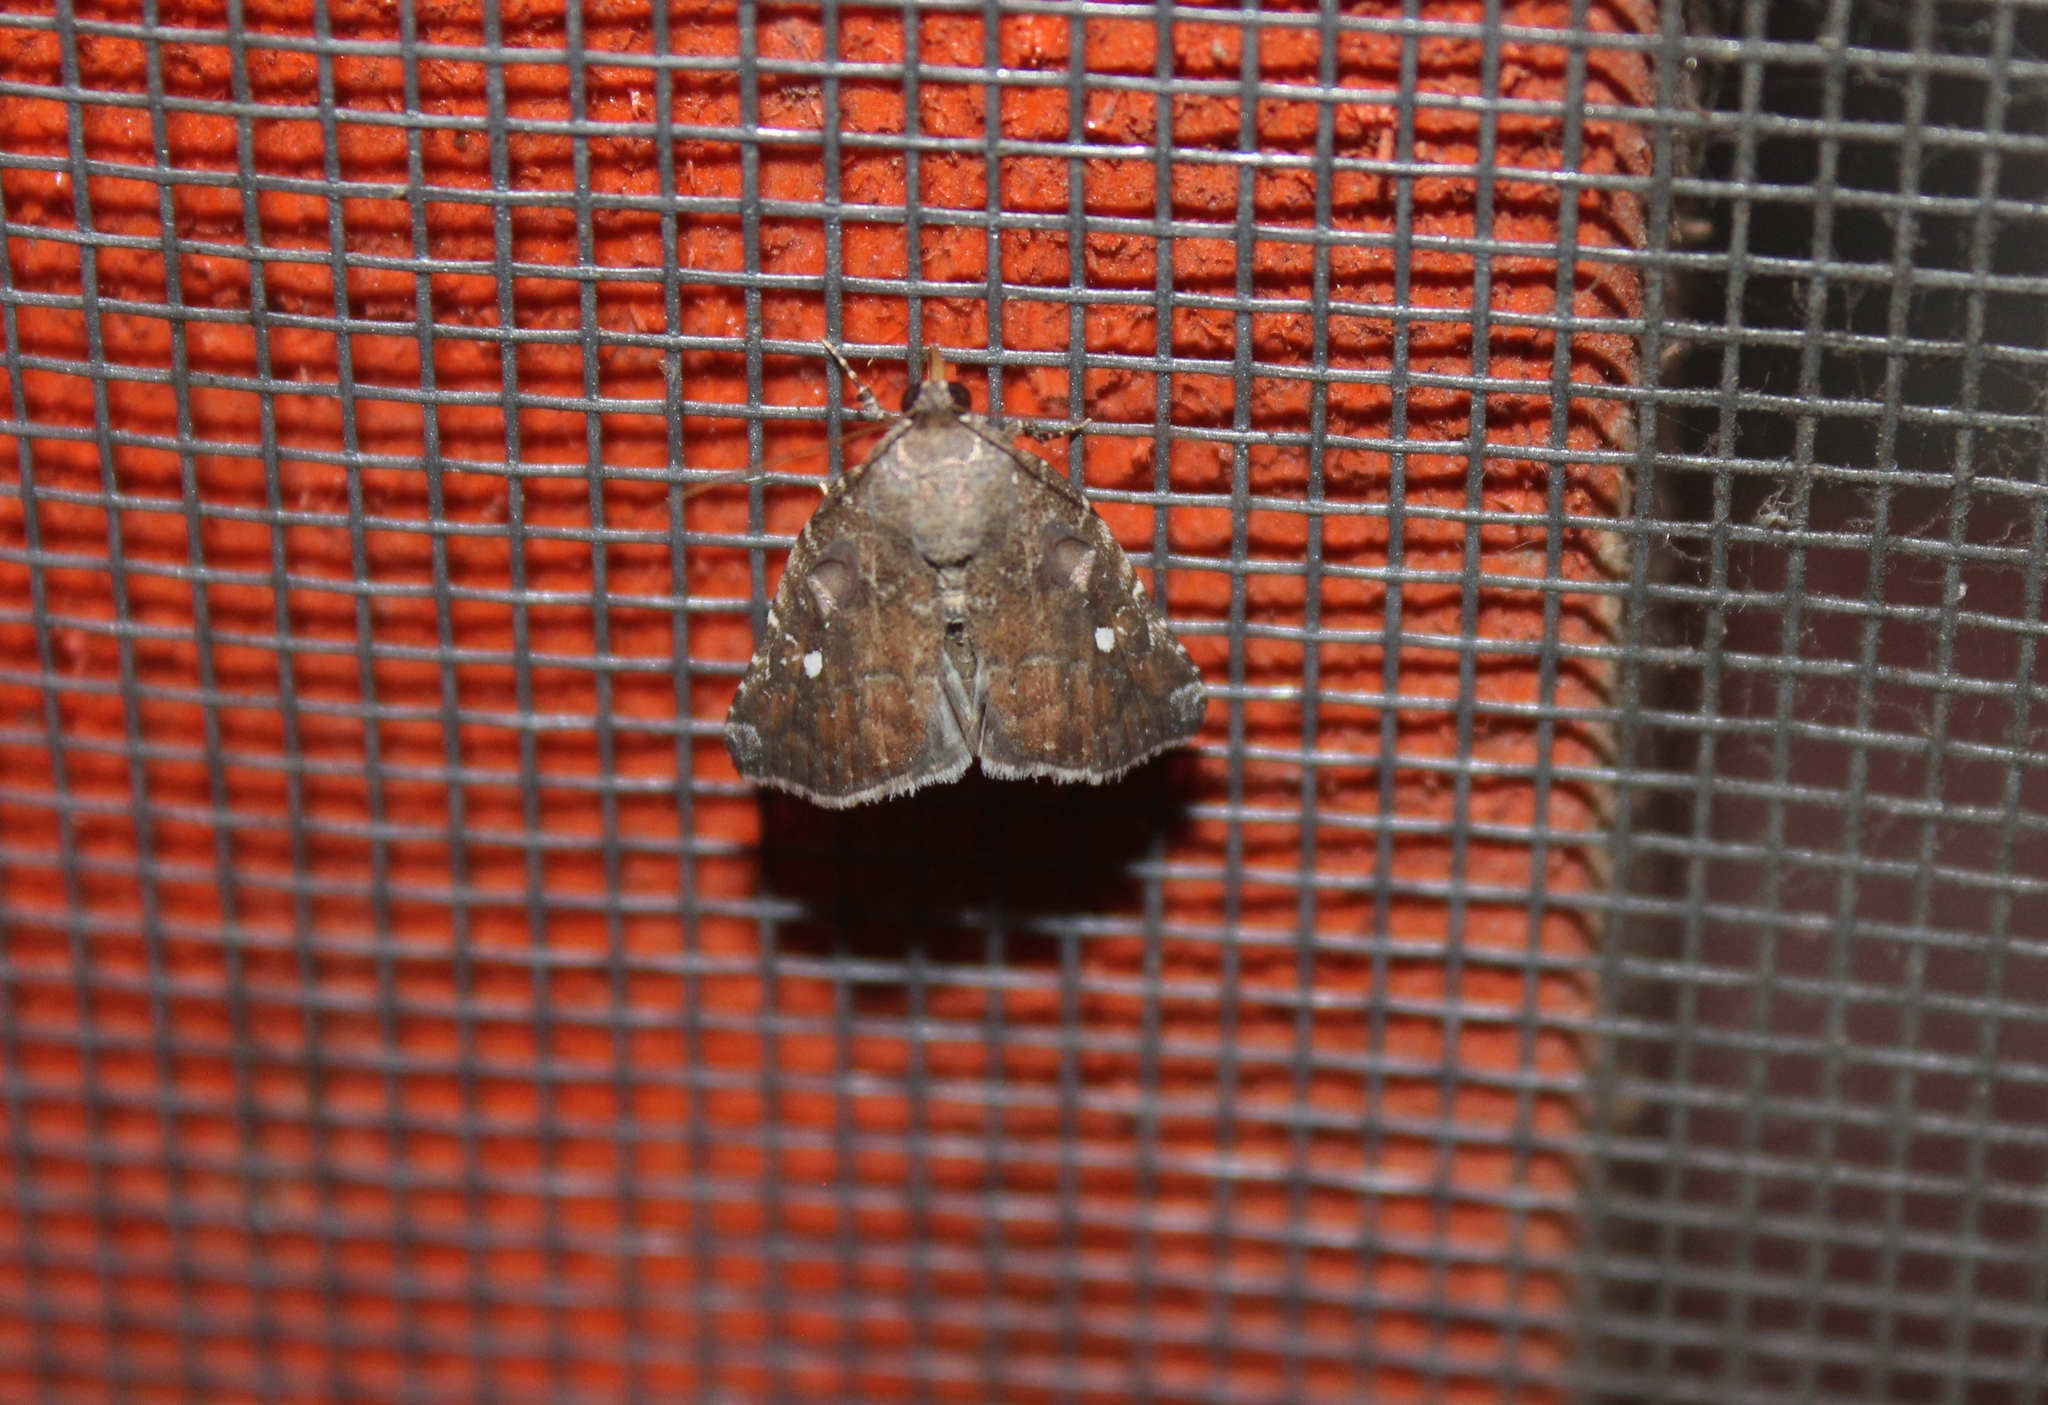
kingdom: Animalia
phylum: Arthropoda
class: Insecta
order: Lepidoptera
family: Noctuidae
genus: Amyna
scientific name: Amyna stricta
